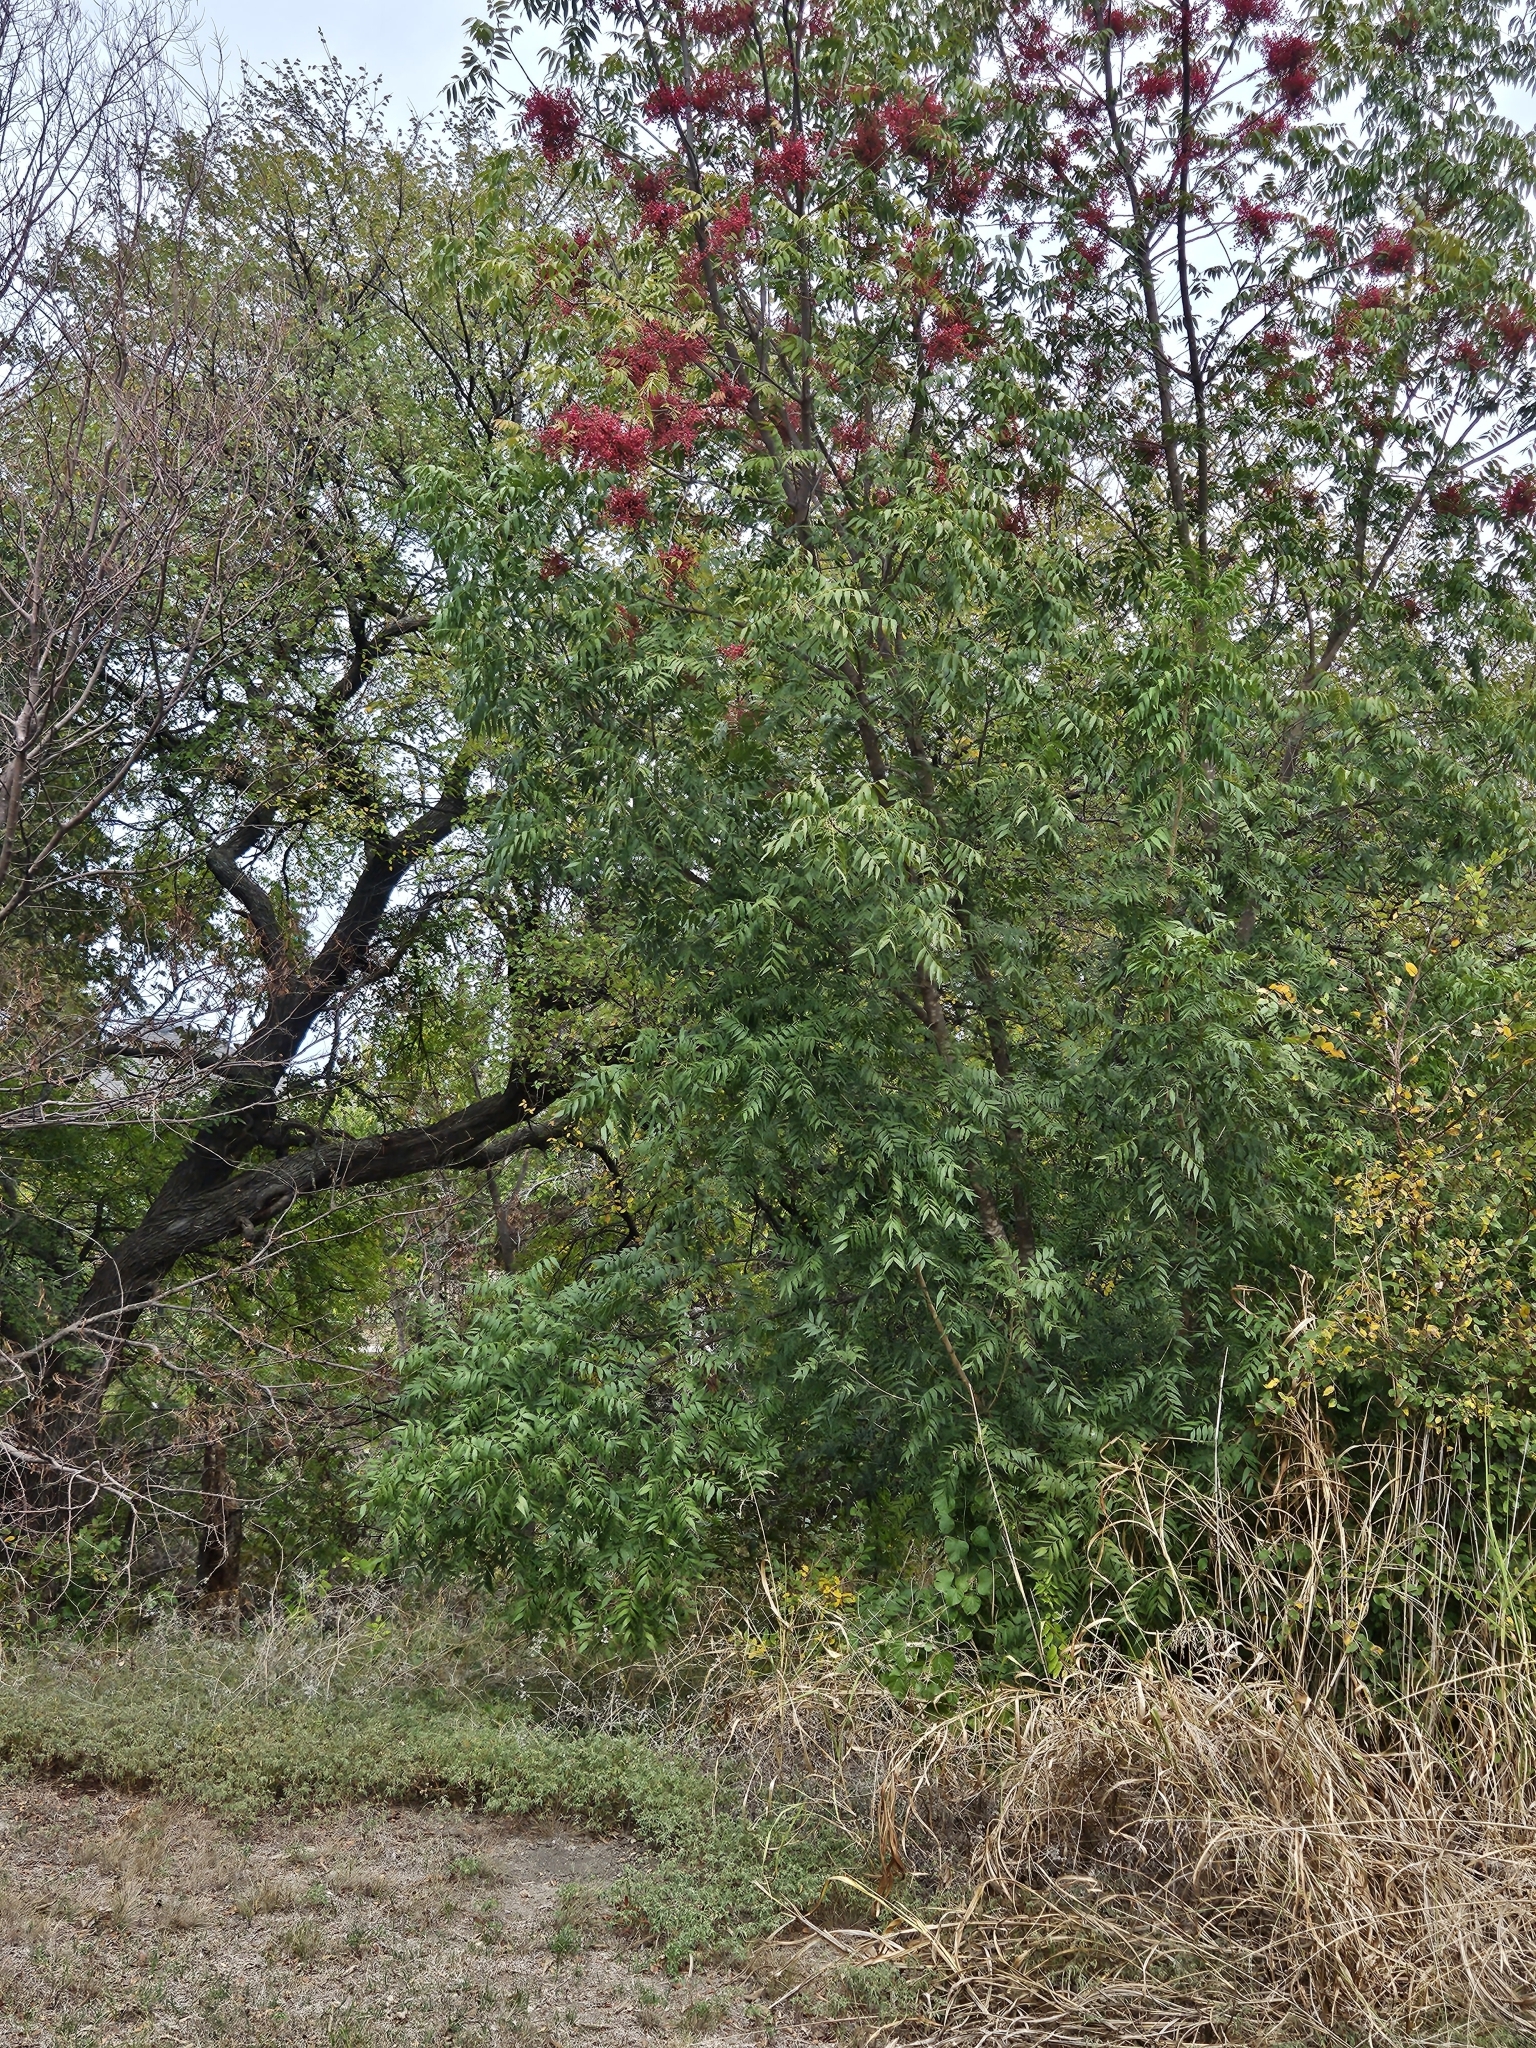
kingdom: Plantae
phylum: Tracheophyta
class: Magnoliopsida
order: Sapindales
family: Anacardiaceae
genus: Pistacia
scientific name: Pistacia chinensis
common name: Chinese pistache
